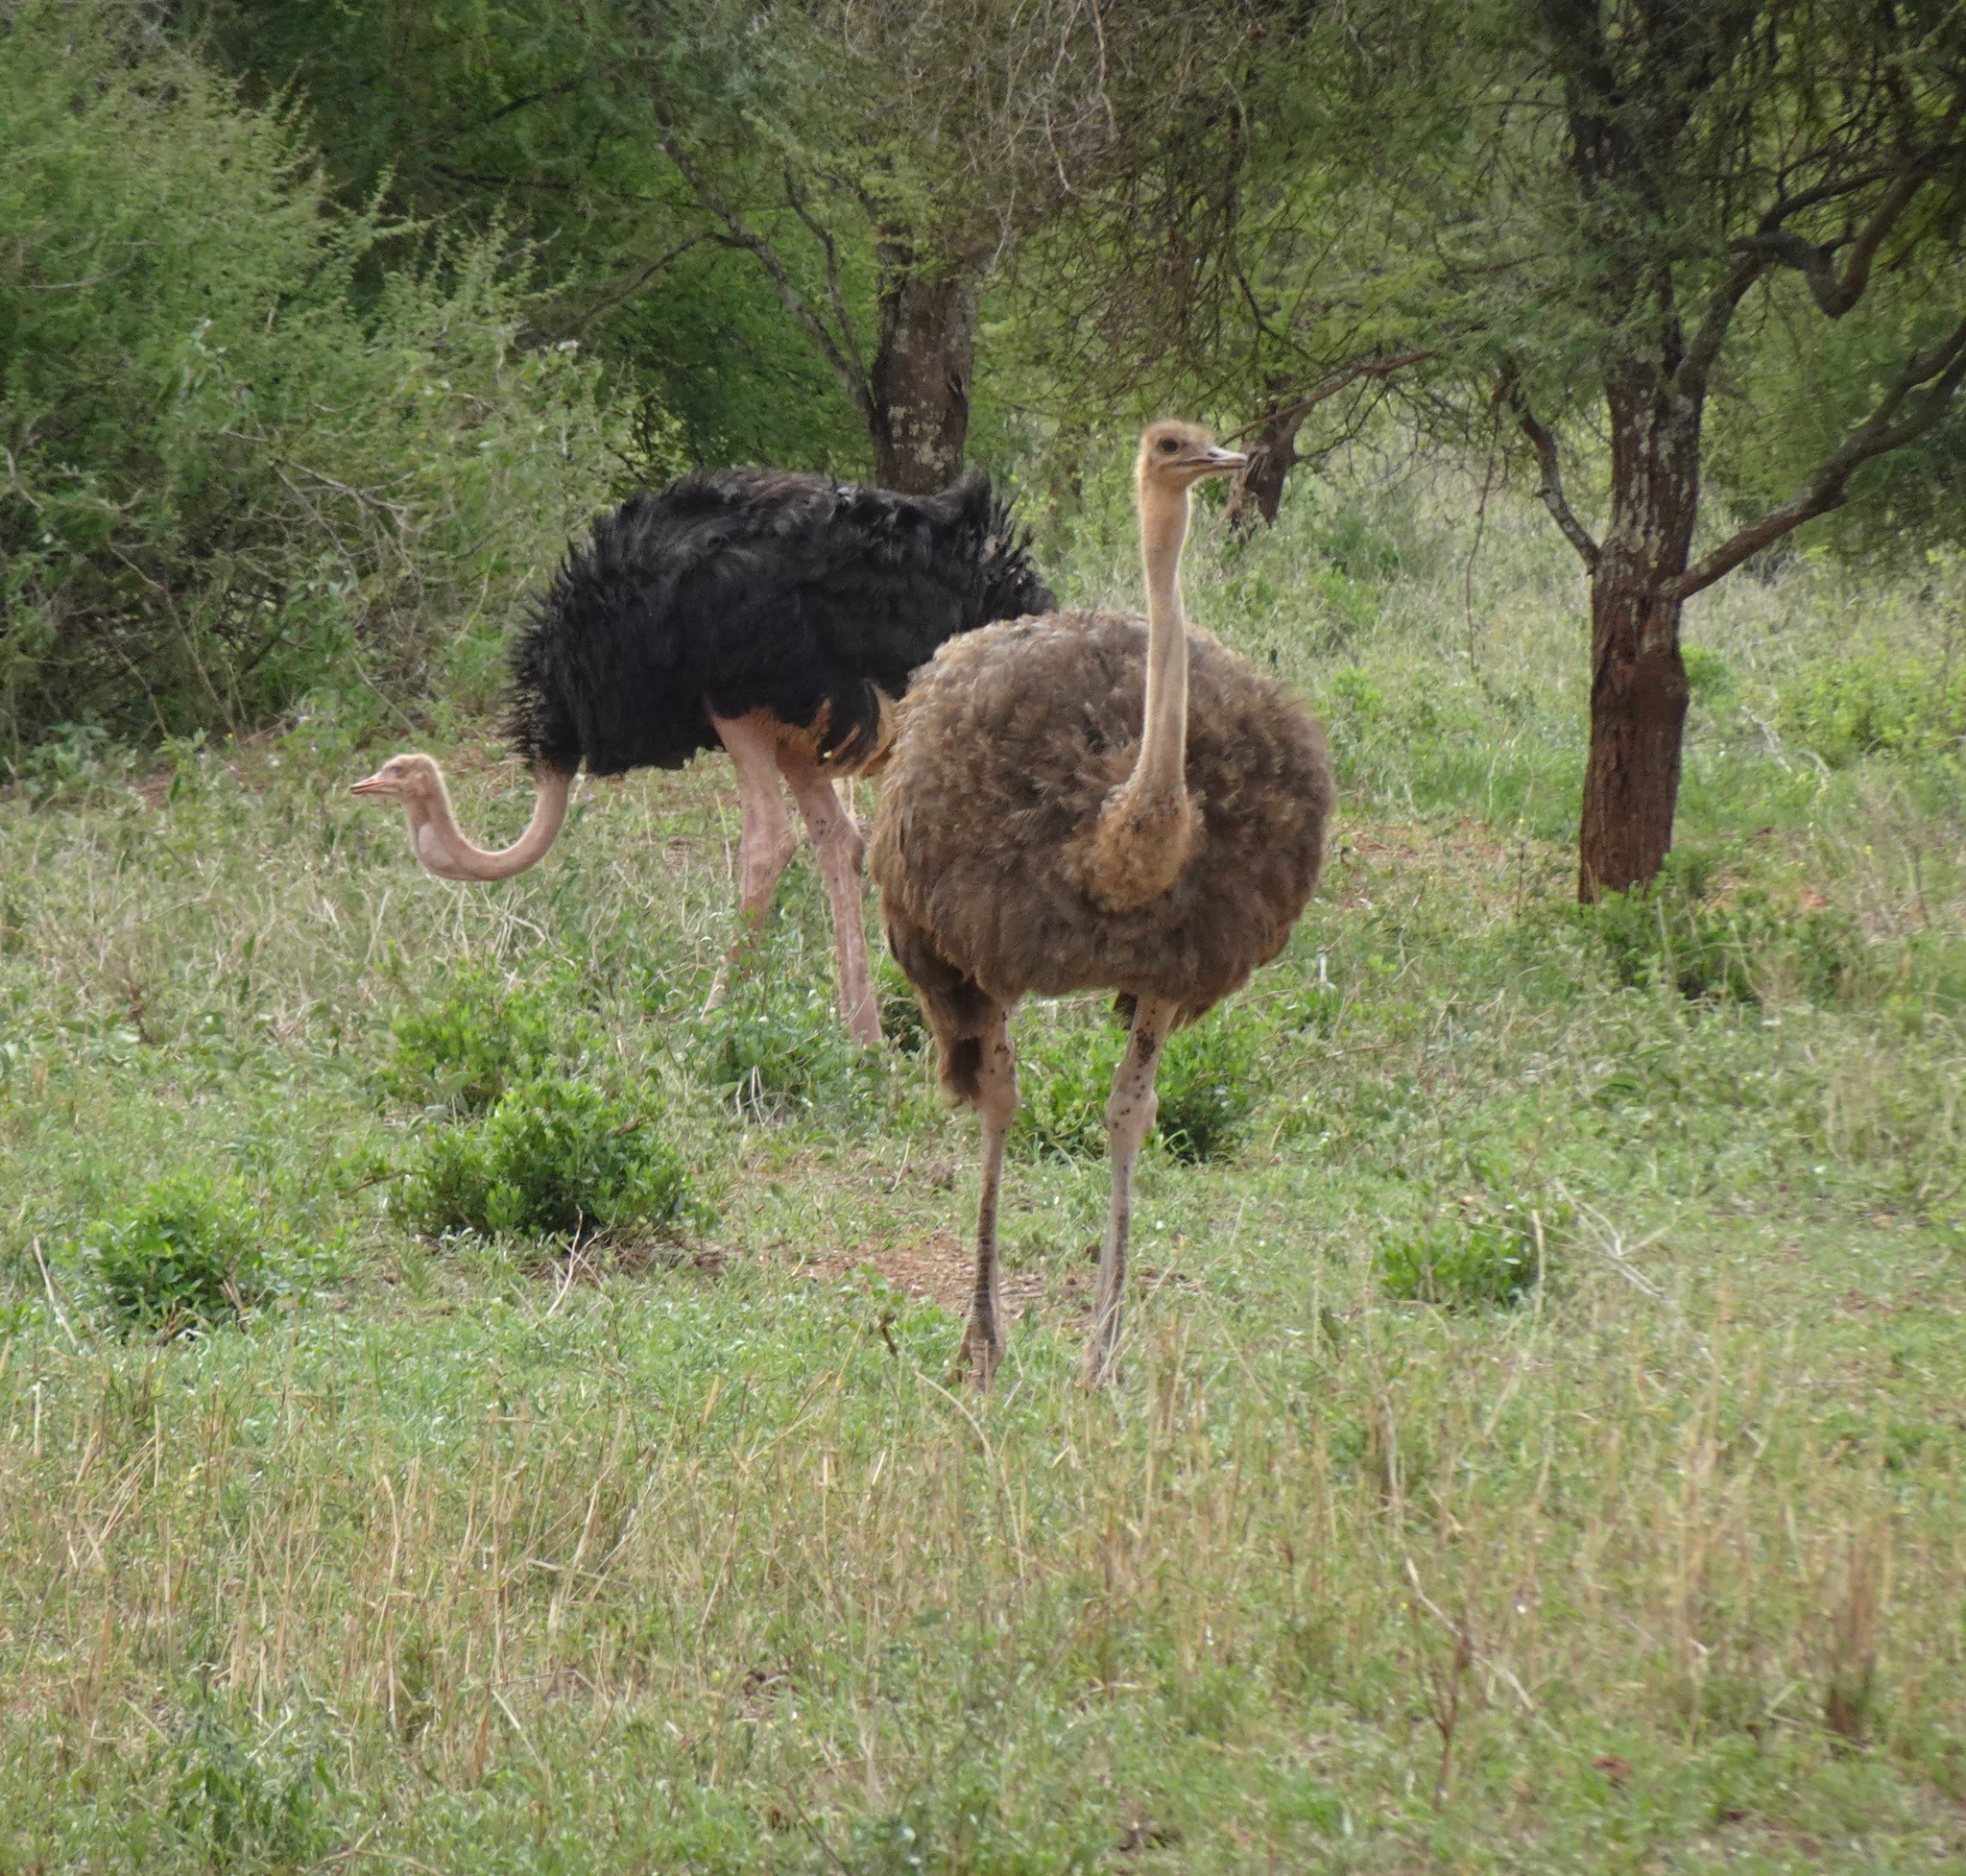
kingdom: Animalia
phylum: Chordata
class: Aves
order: Struthioniformes
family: Struthionidae
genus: Struthio
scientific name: Struthio camelus
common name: Common ostrich
